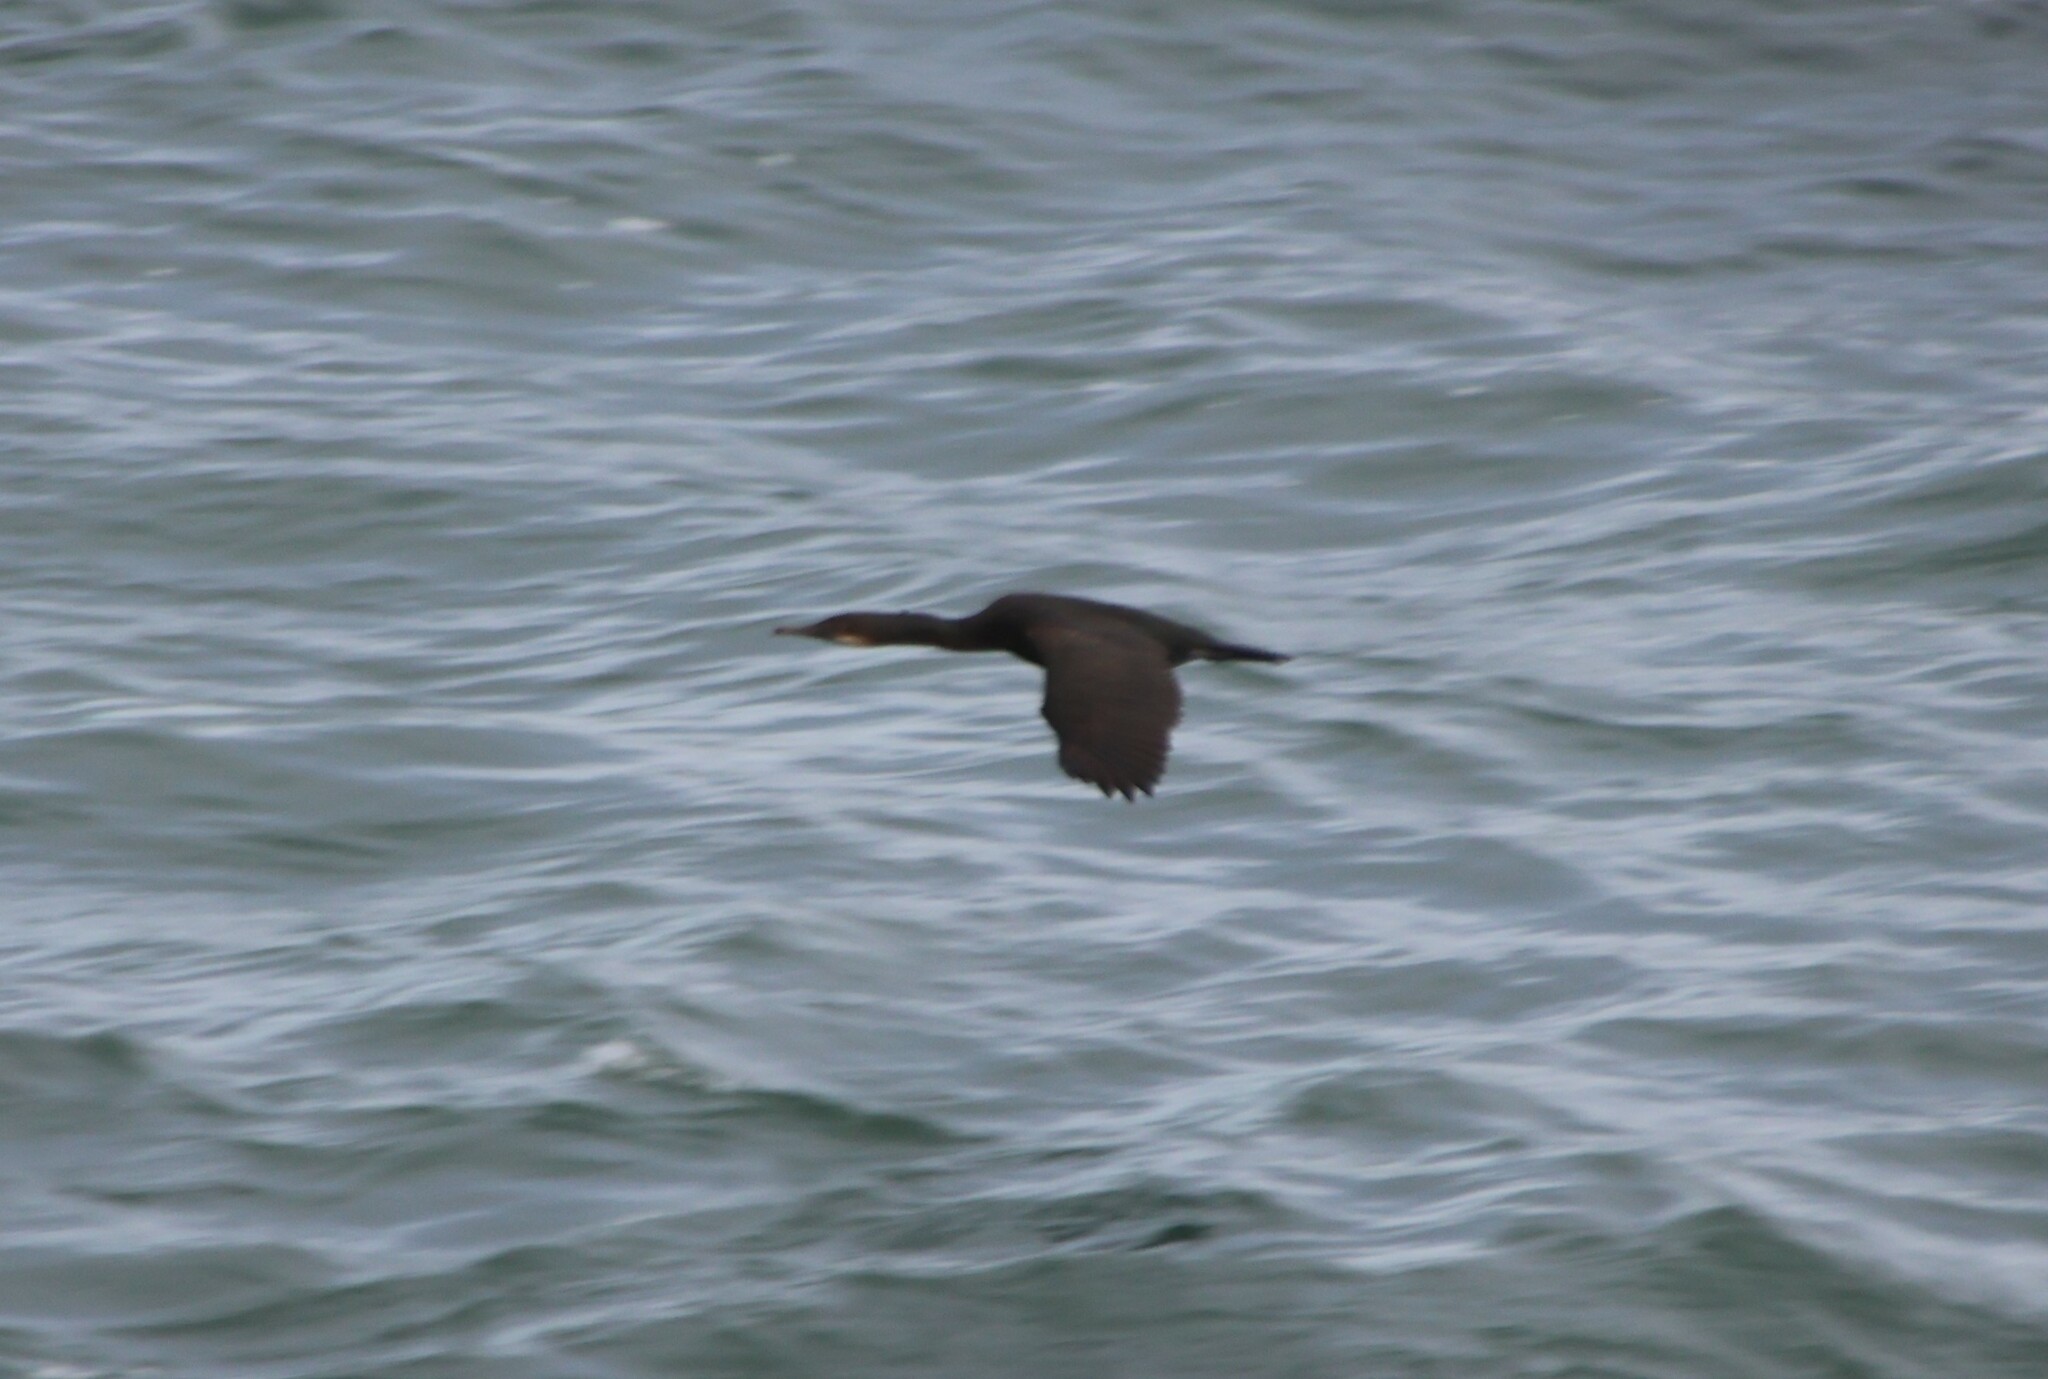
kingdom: Animalia
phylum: Chordata
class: Aves
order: Suliformes
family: Phalacrocoracidae
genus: Urile
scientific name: Urile penicillatus
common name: Brandt's cormorant
